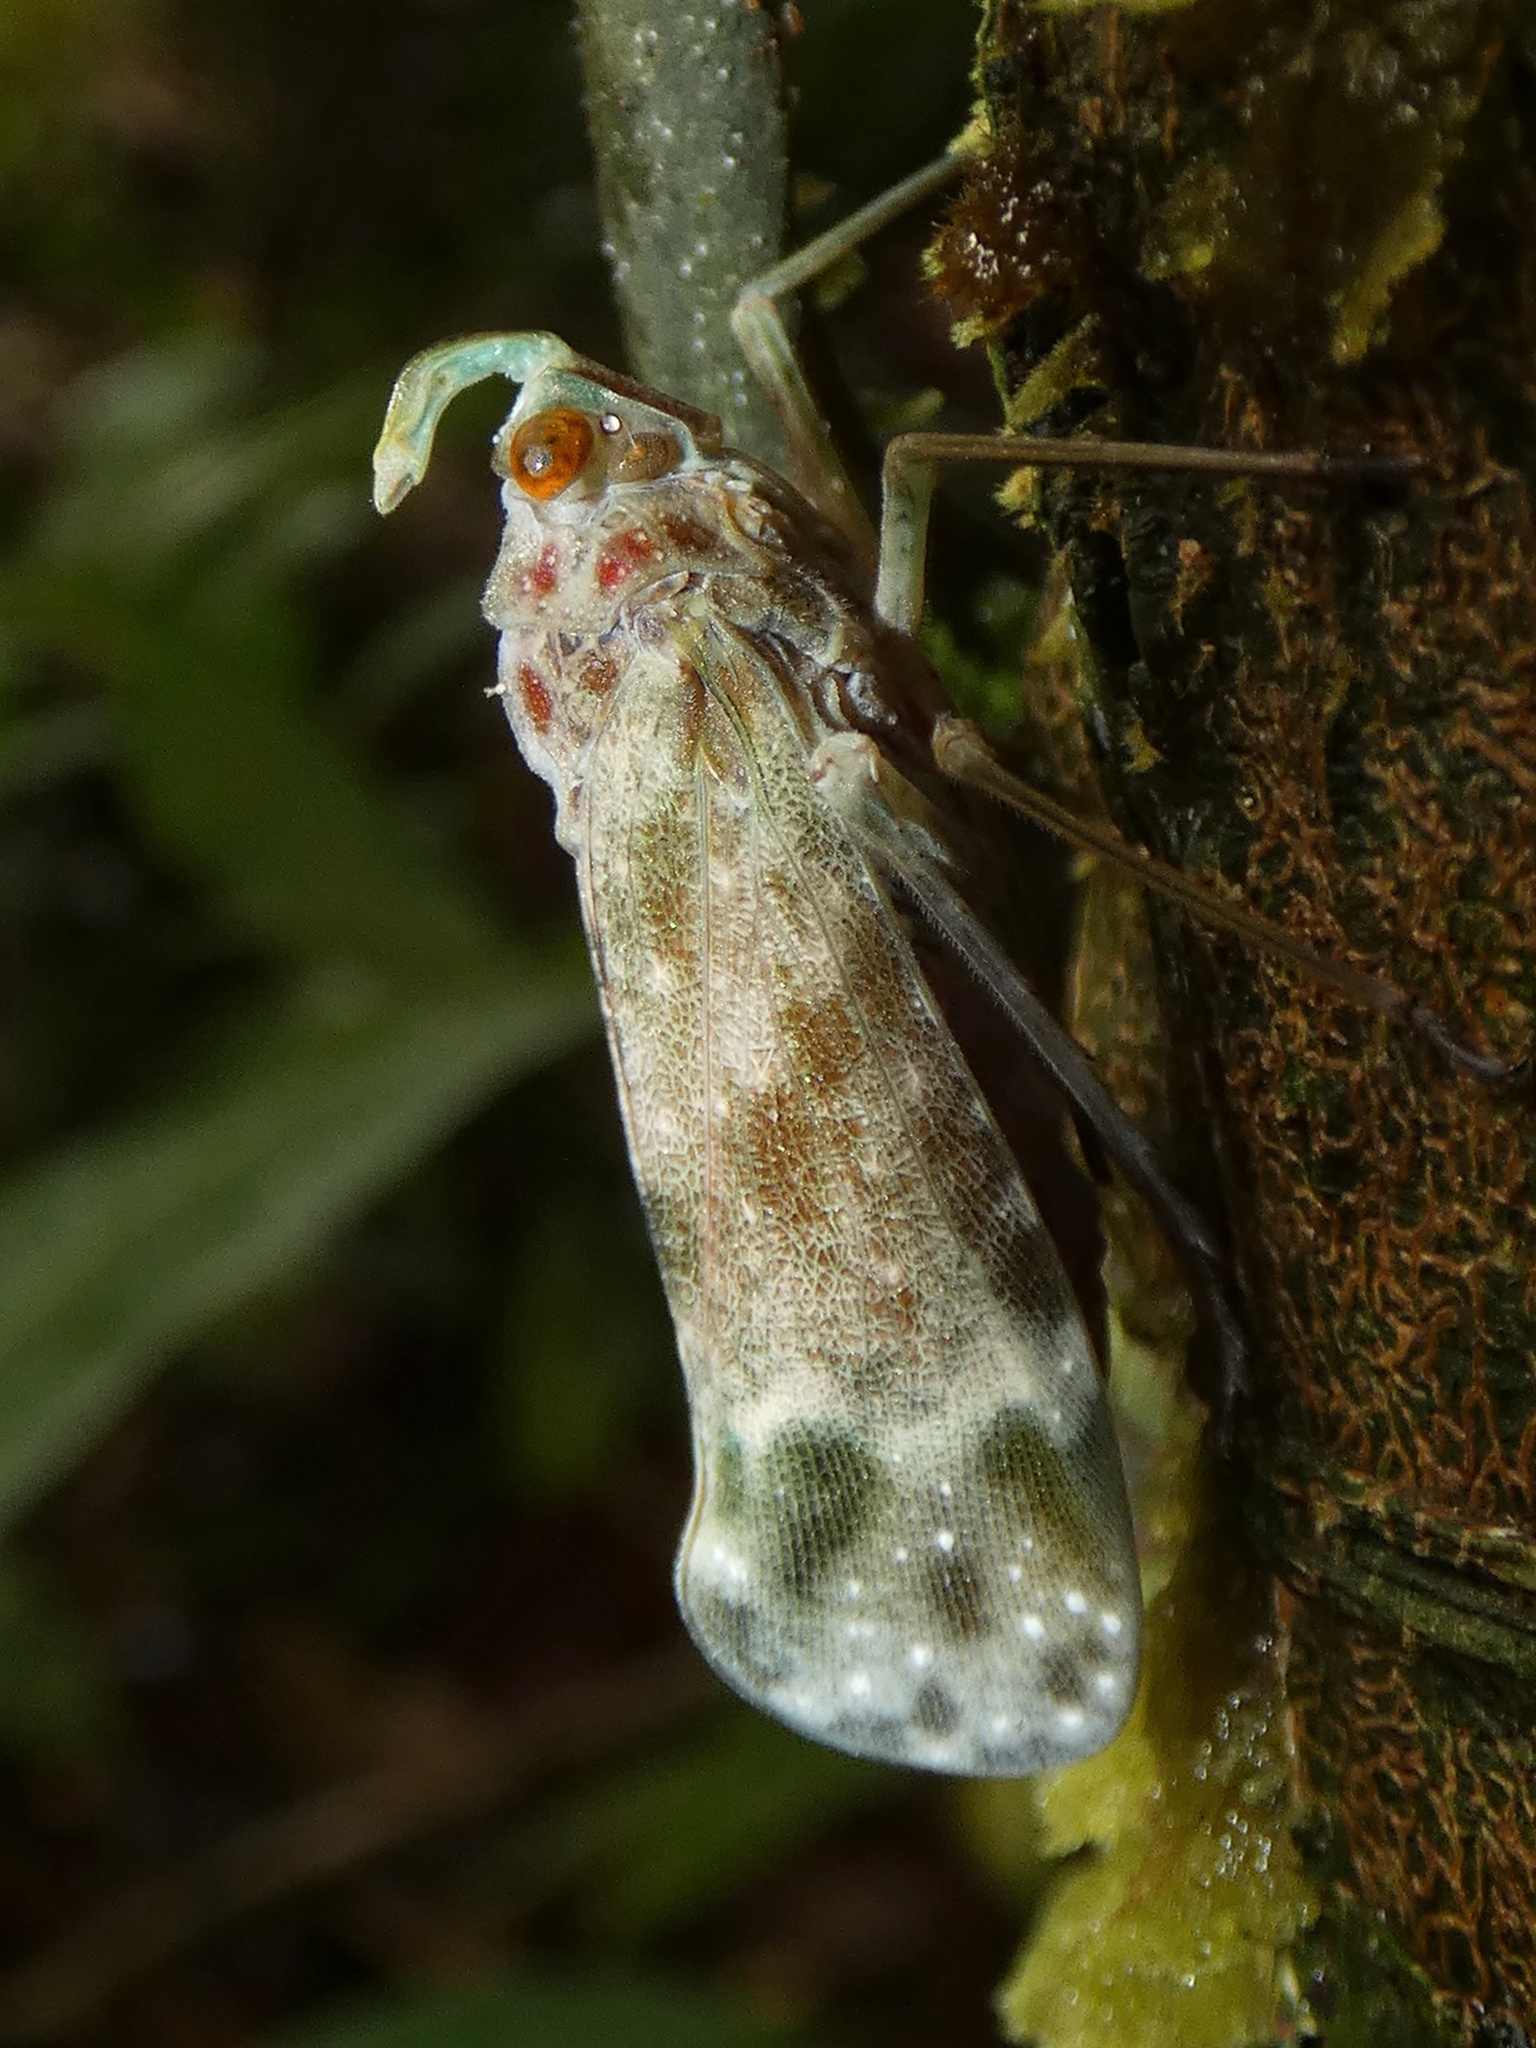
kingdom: Animalia
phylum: Arthropoda
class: Insecta
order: Hemiptera
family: Fulgoridae
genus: Enchophora
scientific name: Enchophora sanguinea
